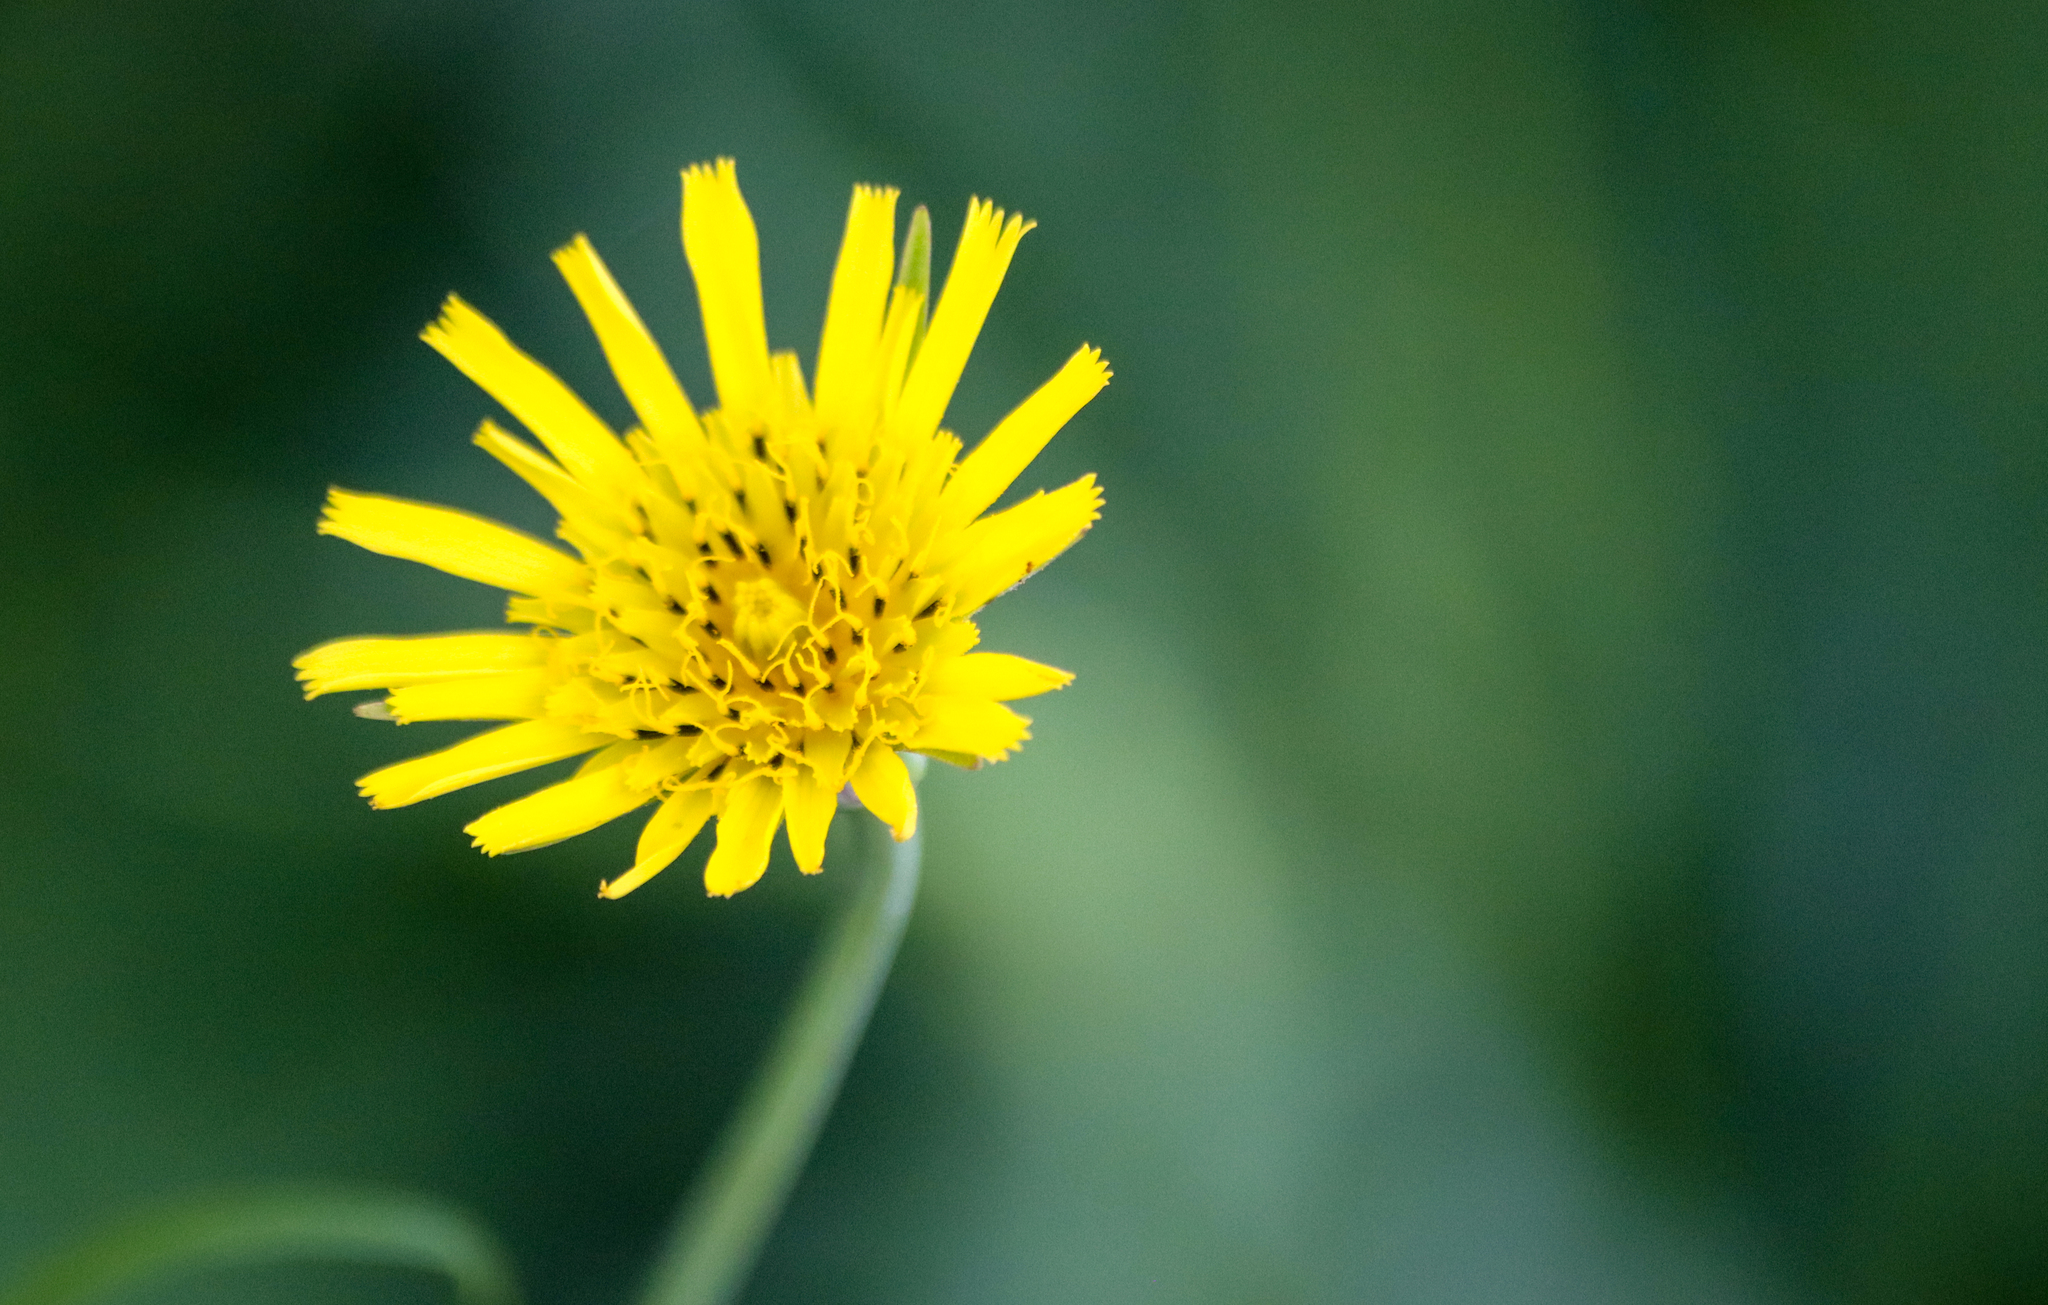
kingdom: Plantae
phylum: Tracheophyta
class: Magnoliopsida
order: Asterales
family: Asteraceae
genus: Tragopogon
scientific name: Tragopogon pratensis
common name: Goat's-beard
